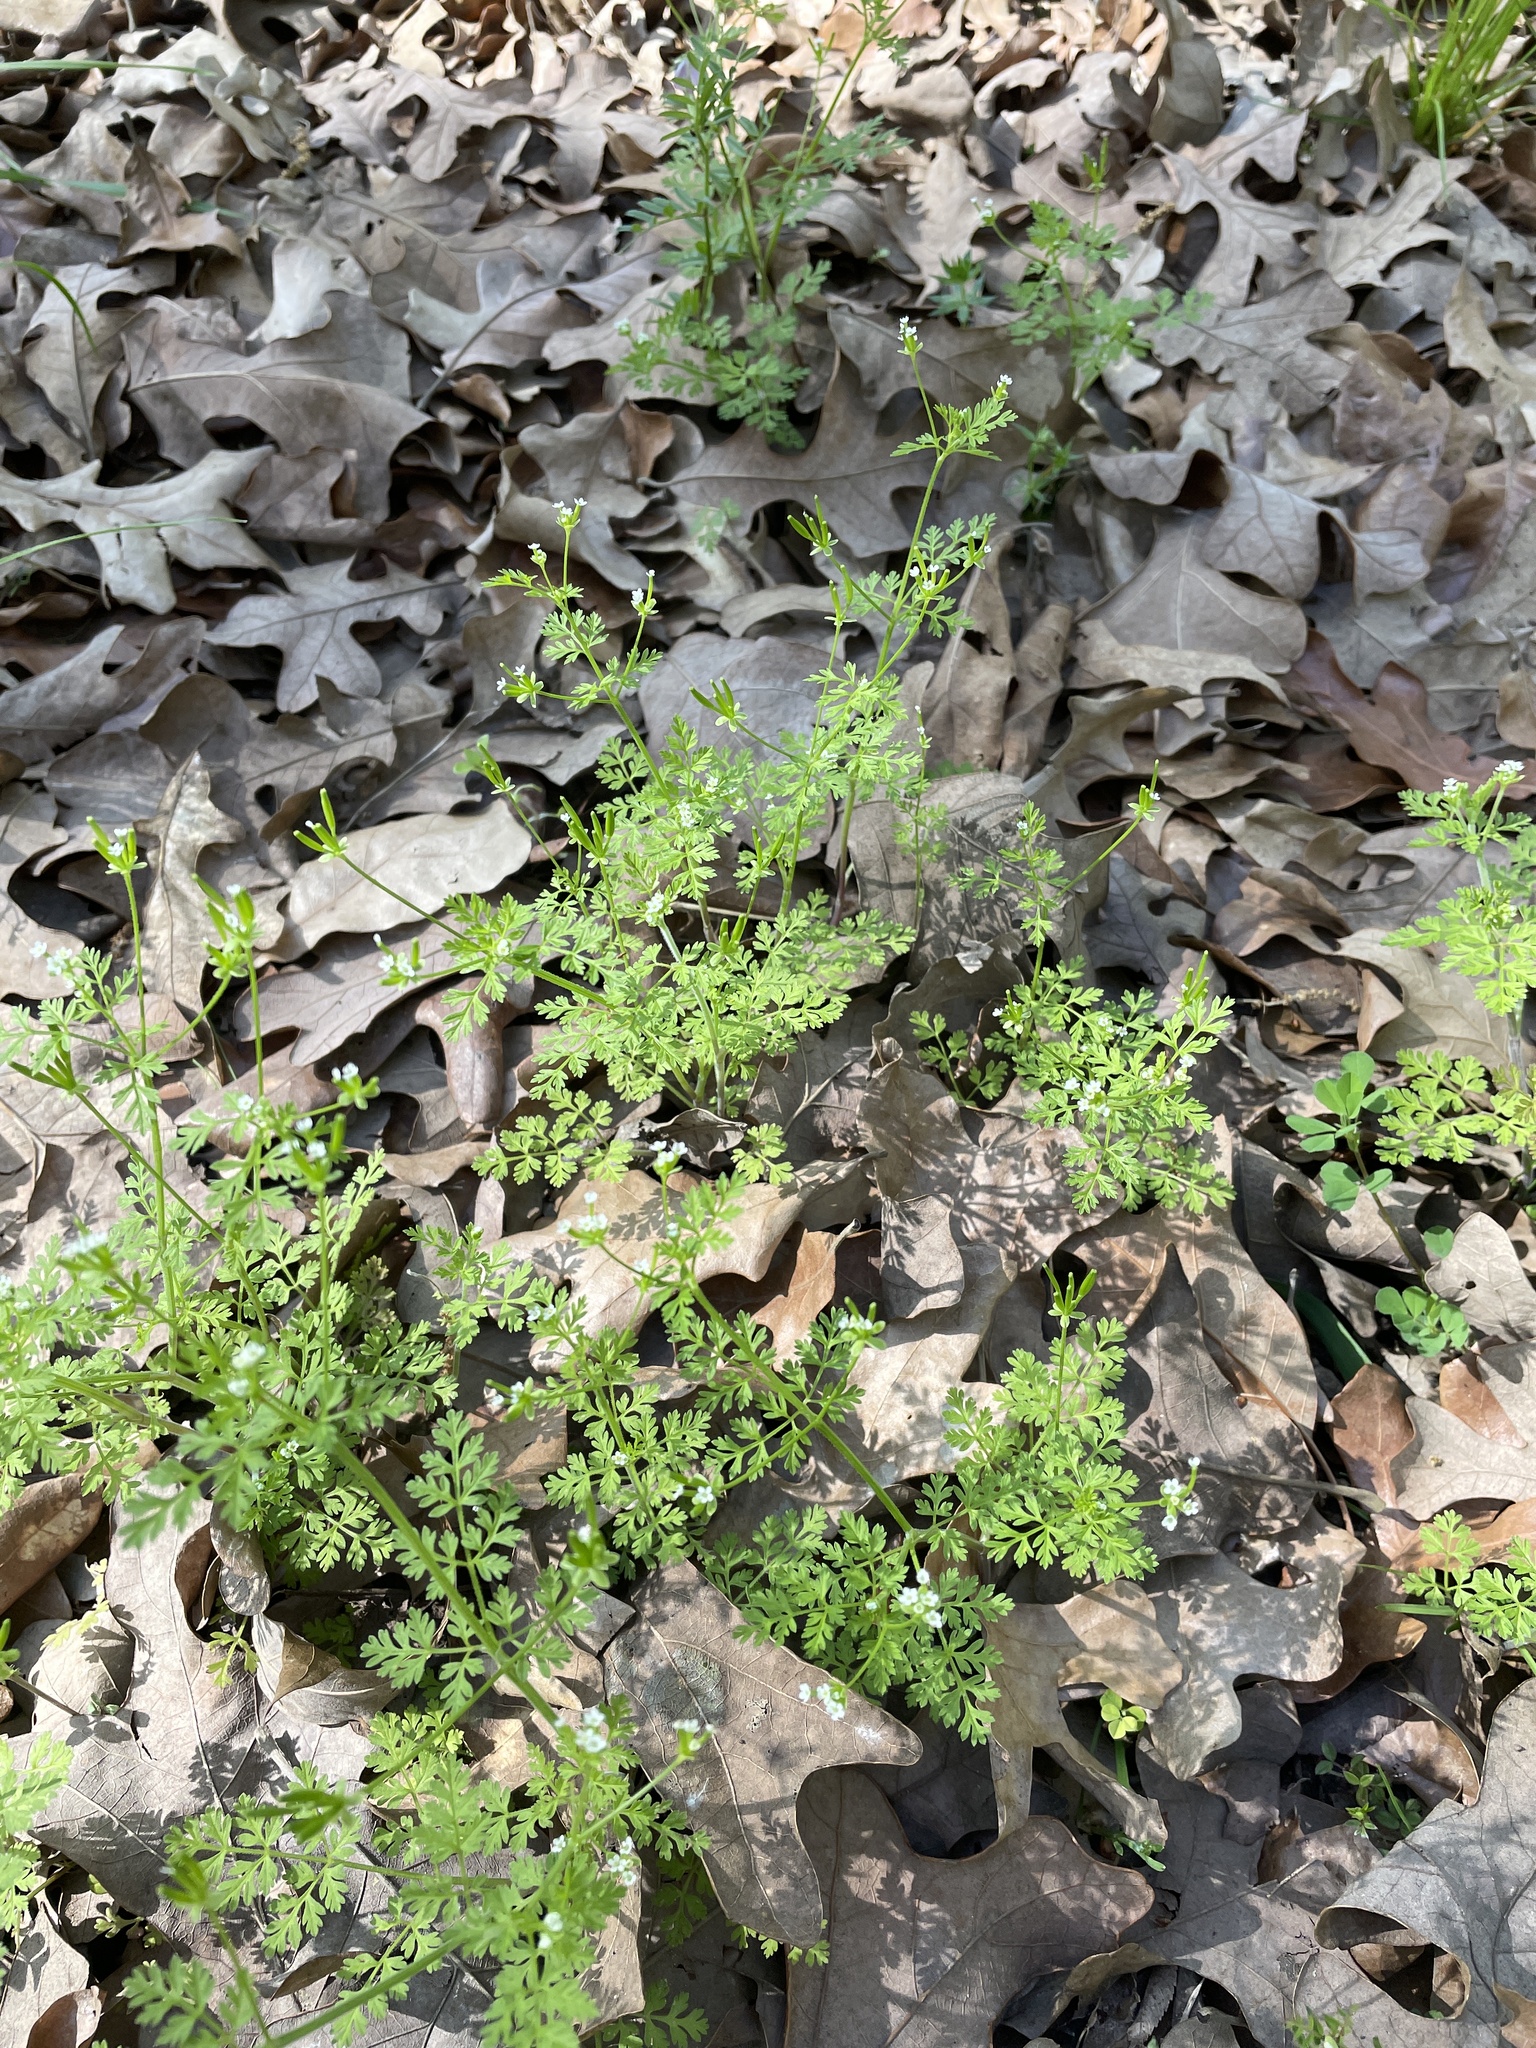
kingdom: Plantae
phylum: Tracheophyta
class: Magnoliopsida
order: Apiales
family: Apiaceae
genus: Chaerophyllum
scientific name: Chaerophyllum tainturieri
